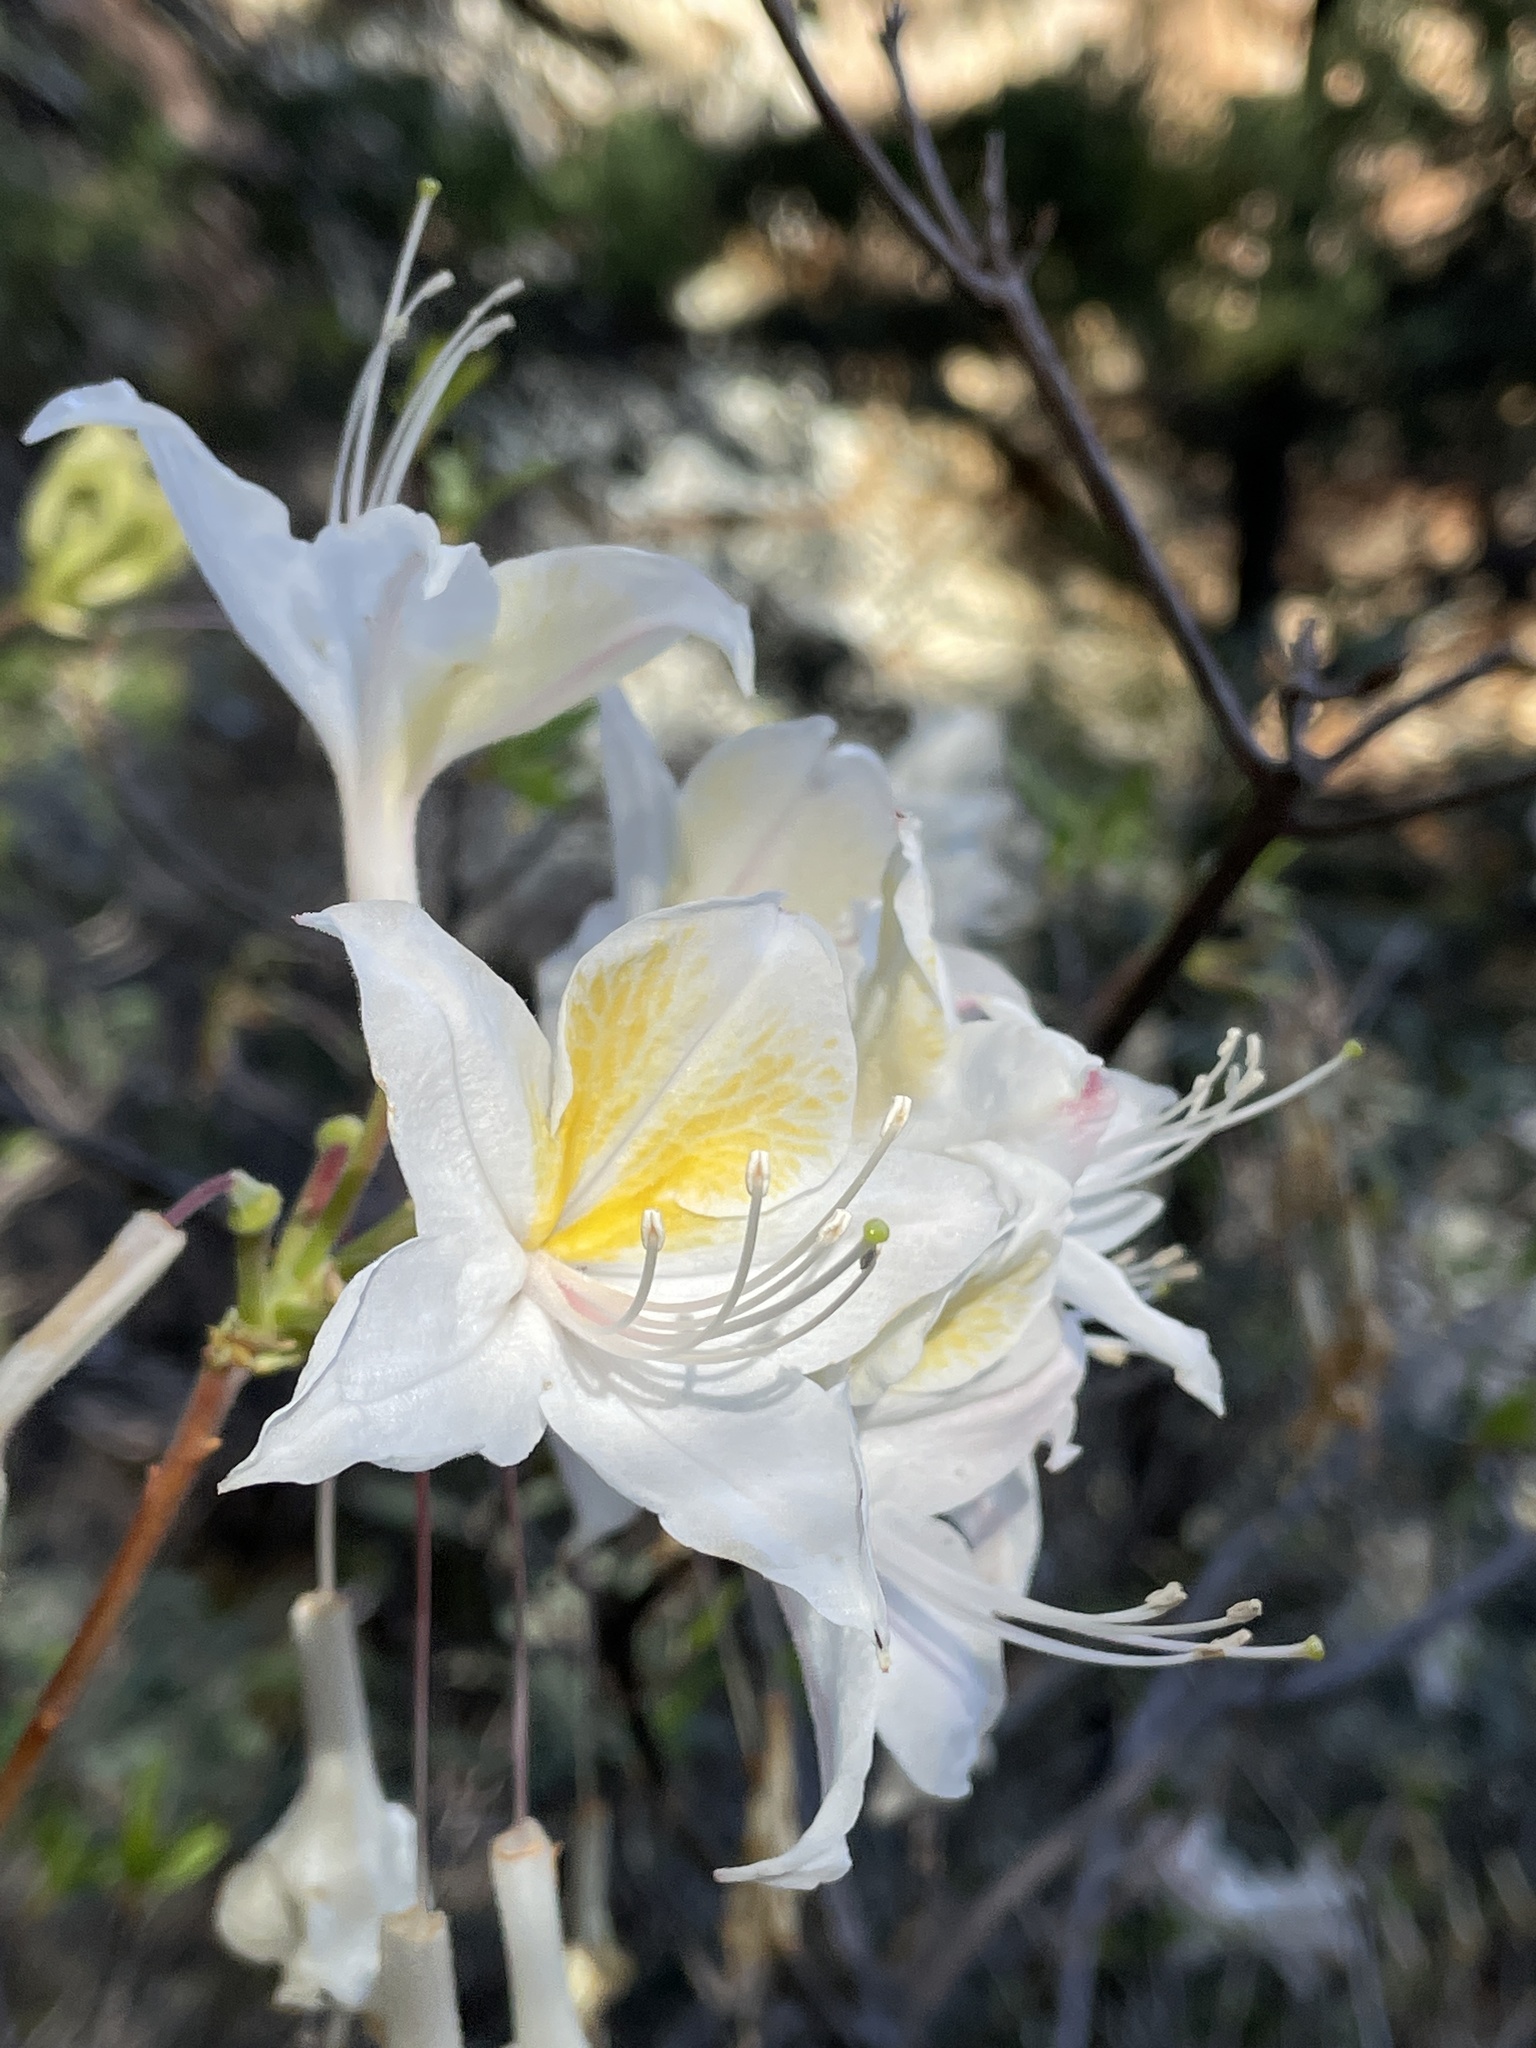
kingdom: Plantae
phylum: Tracheophyta
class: Magnoliopsida
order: Ericales
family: Ericaceae
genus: Rhododendron
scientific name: Rhododendron occidentale
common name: Western azalea
